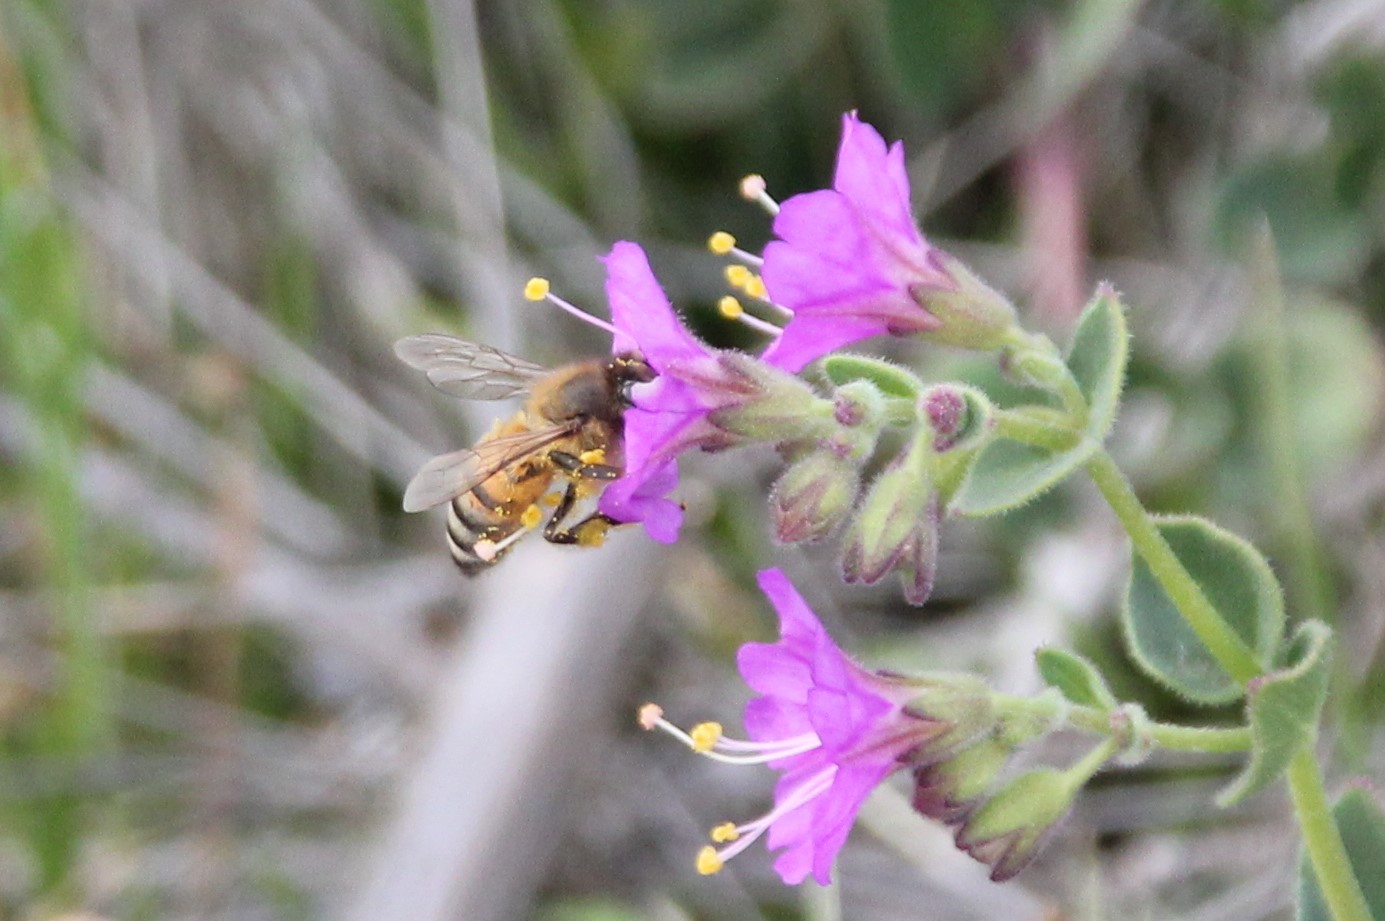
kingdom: Animalia
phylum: Arthropoda
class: Insecta
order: Hymenoptera
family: Apidae
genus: Apis
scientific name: Apis mellifera
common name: Honey bee
